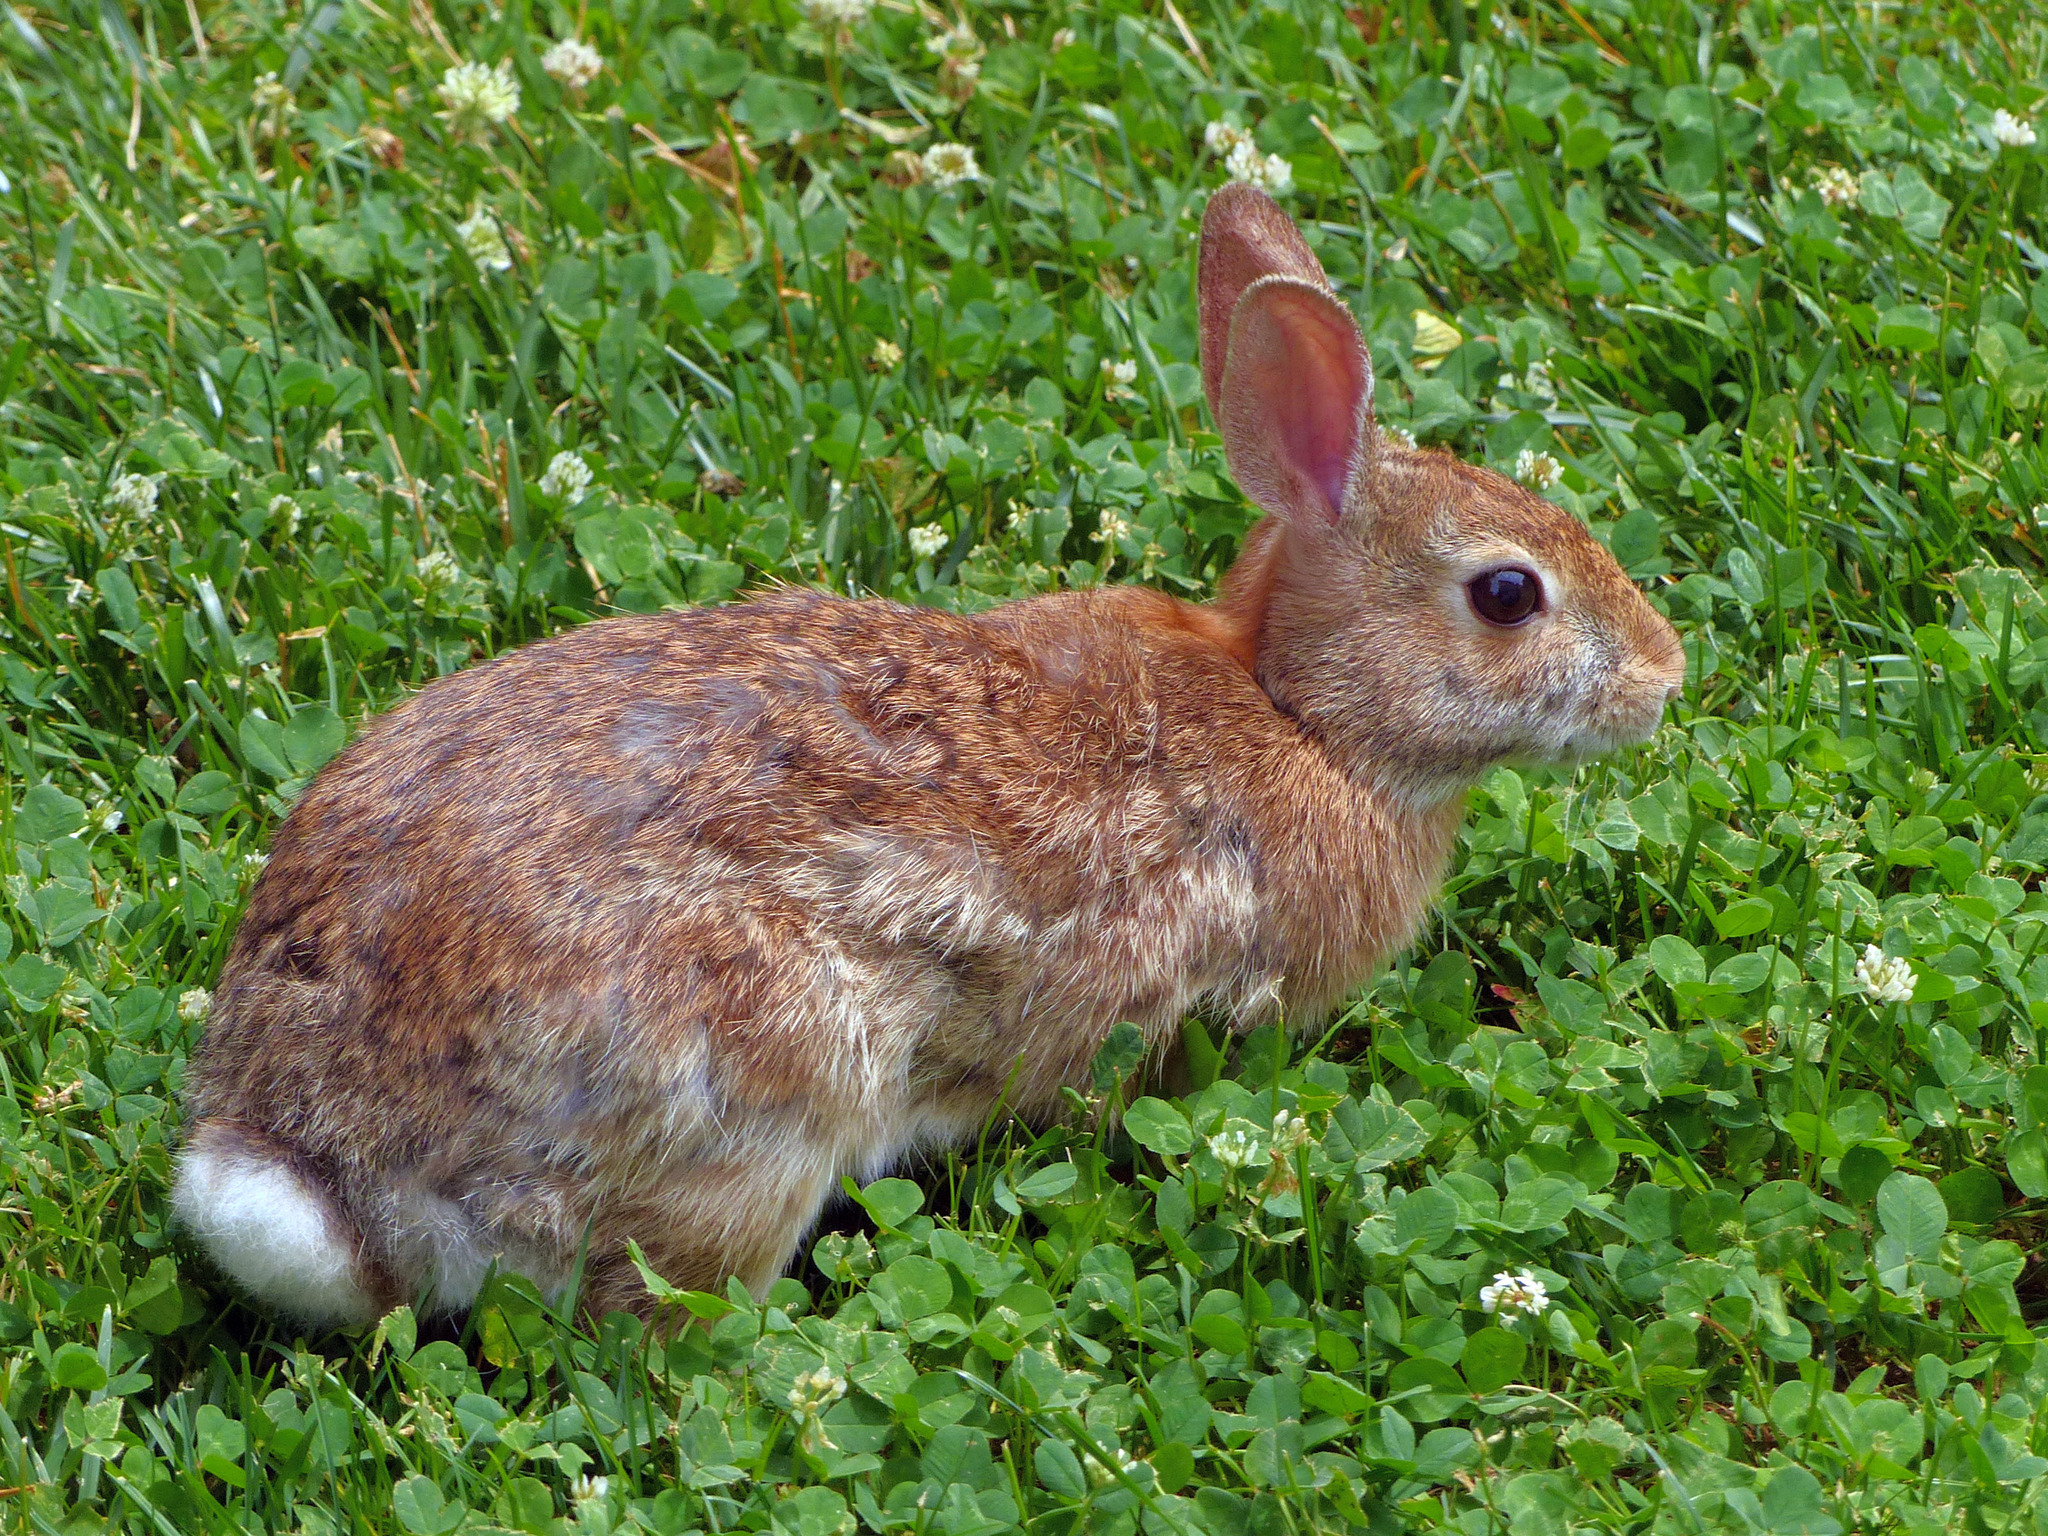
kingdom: Animalia
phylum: Chordata
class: Mammalia
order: Lagomorpha
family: Leporidae
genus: Sylvilagus
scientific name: Sylvilagus floridanus
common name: Eastern cottontail
